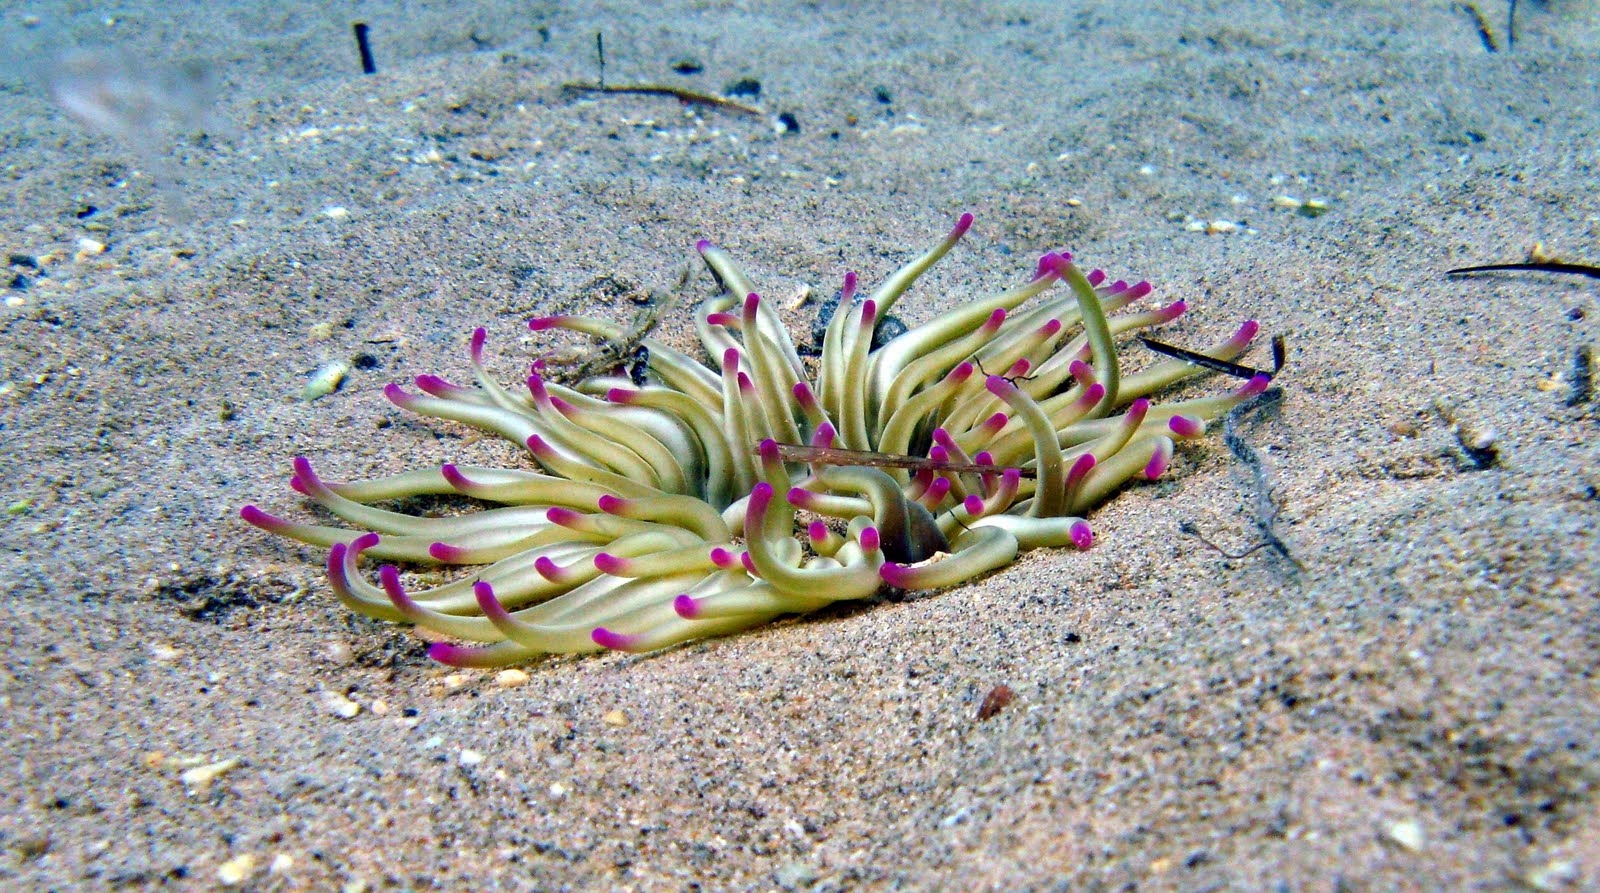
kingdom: Animalia
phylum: Cnidaria
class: Anthozoa
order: Actiniaria
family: Actiniidae
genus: Condylactis
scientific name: Condylactis aurantiaca
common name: Golden anemone
